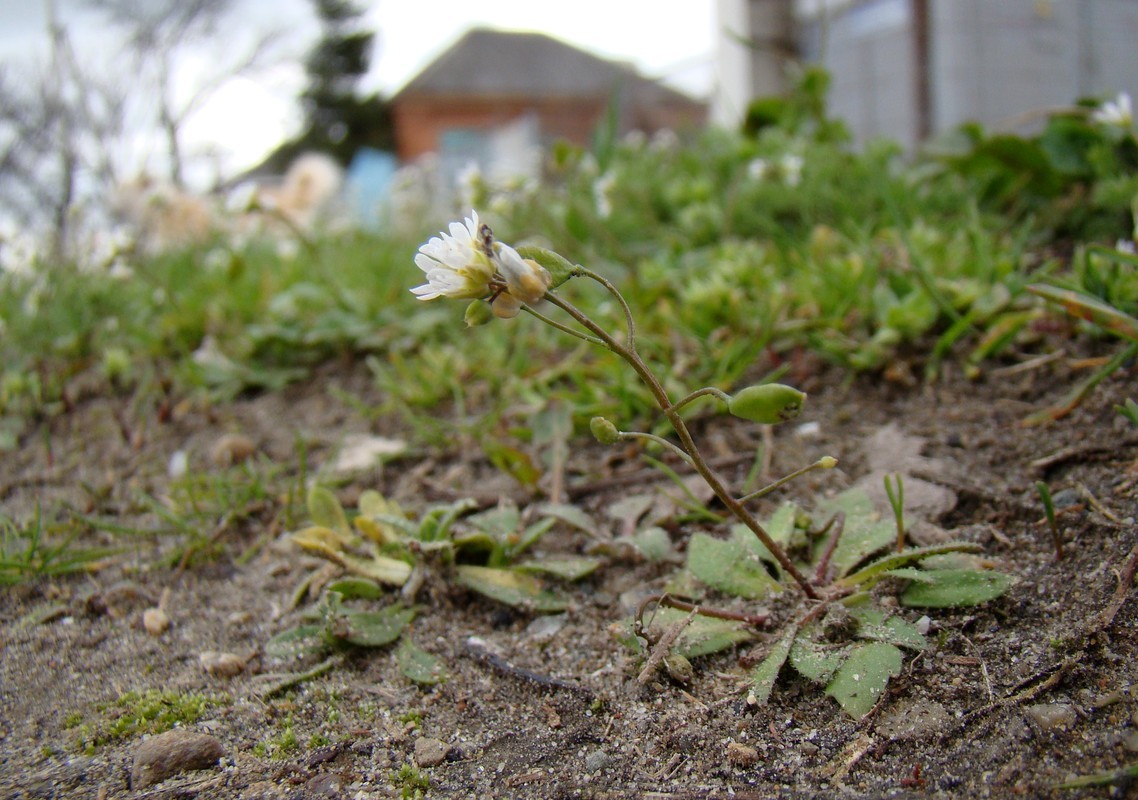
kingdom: Plantae
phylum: Tracheophyta
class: Magnoliopsida
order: Brassicales
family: Brassicaceae
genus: Draba
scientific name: Draba verna
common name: Spring draba
